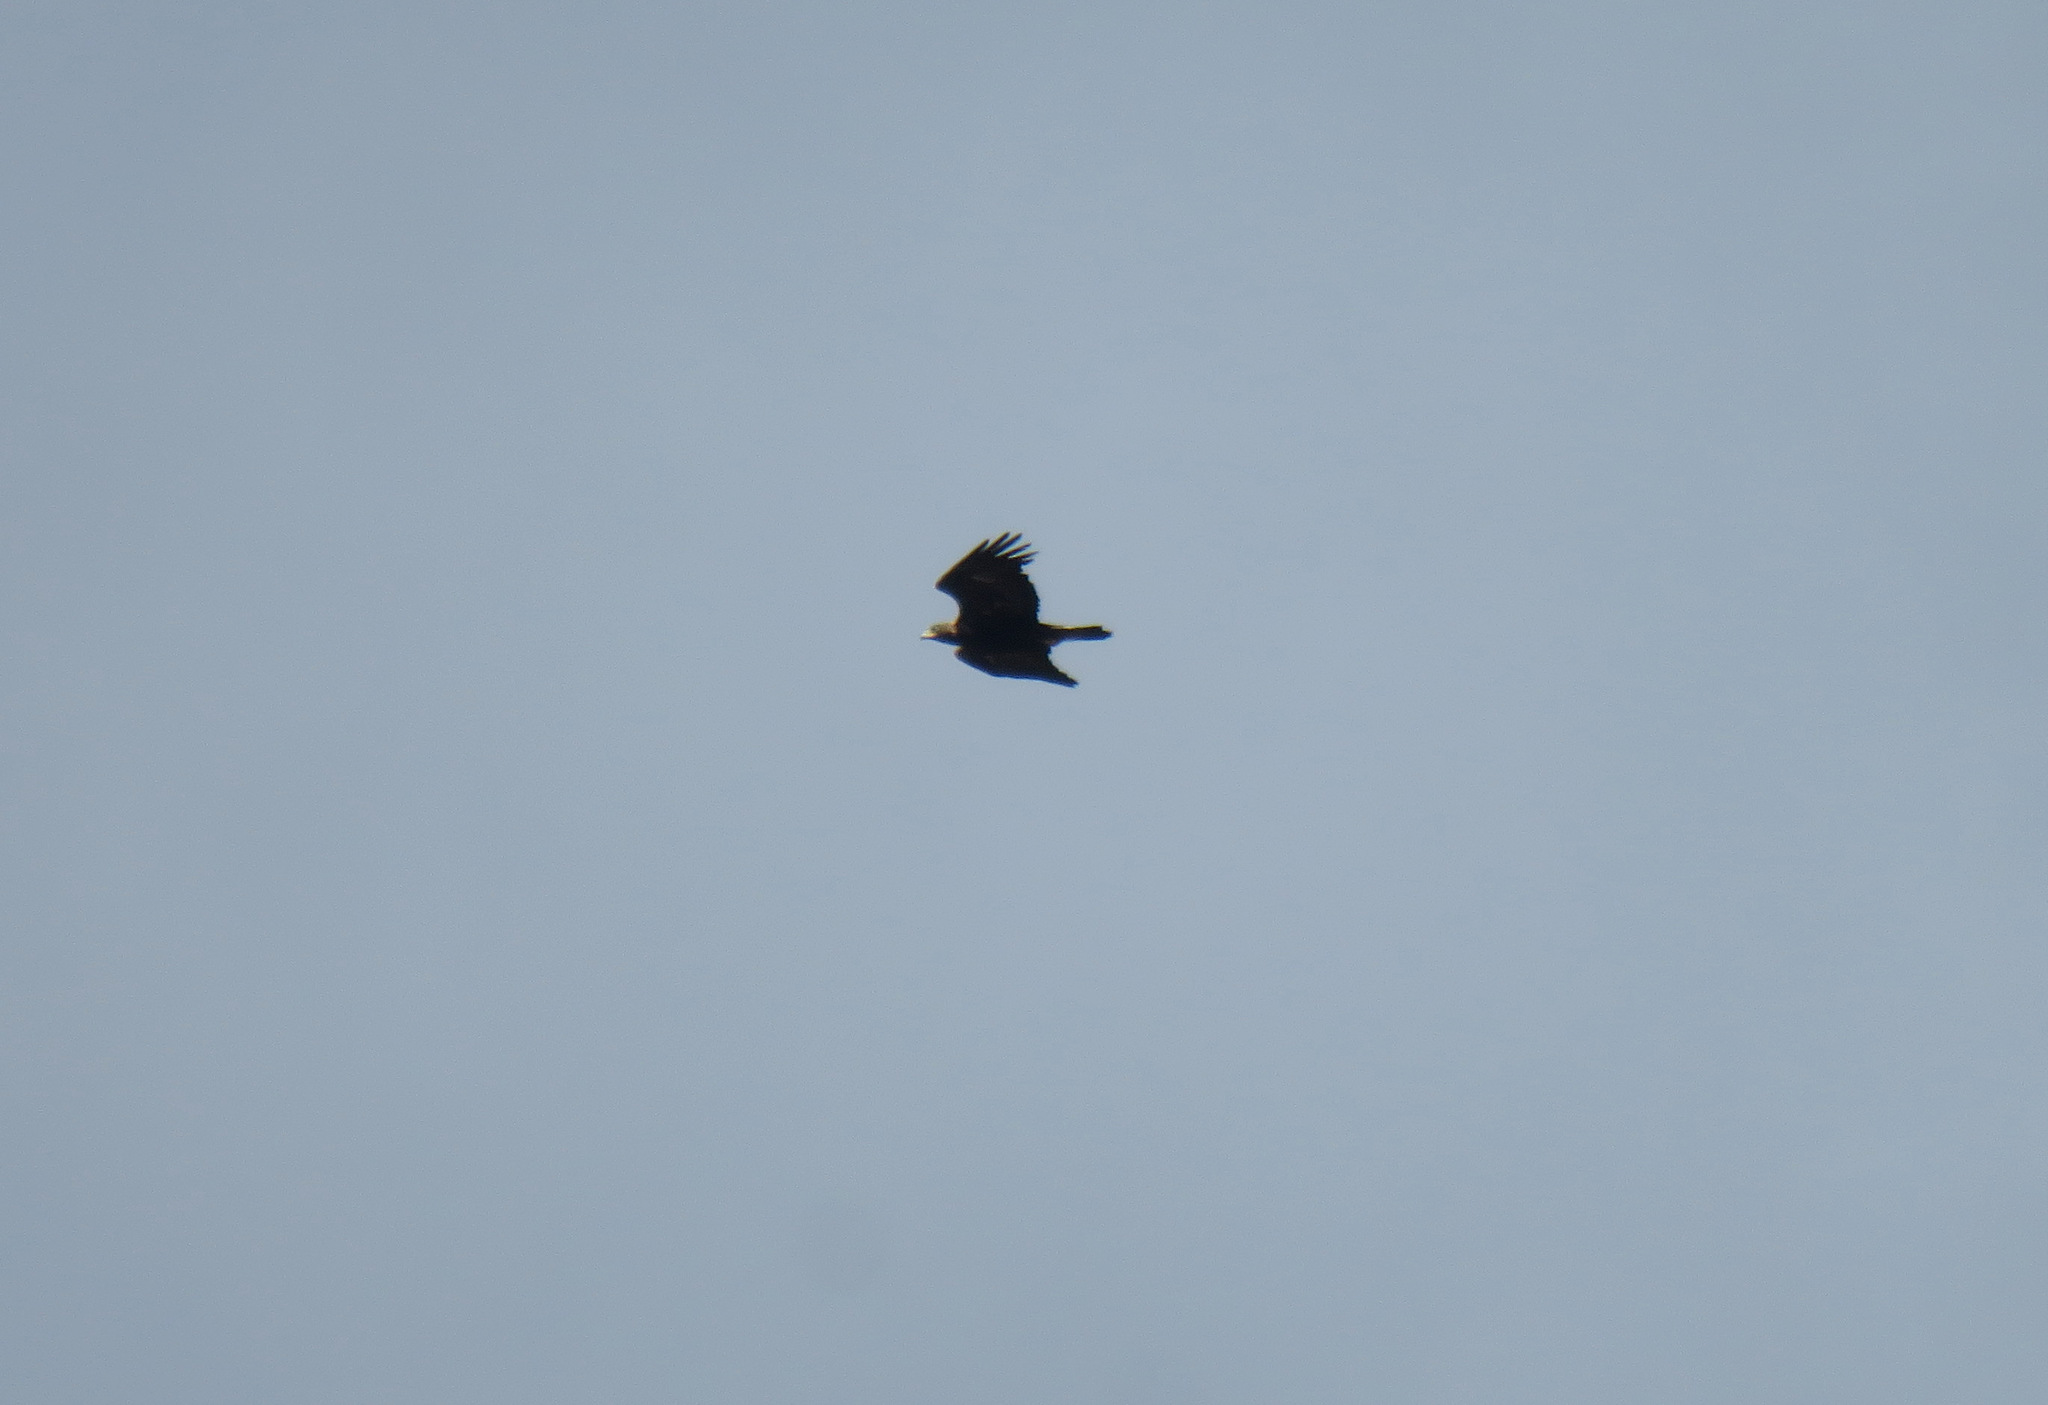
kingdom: Animalia
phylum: Chordata
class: Aves
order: Accipitriformes
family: Accipitridae
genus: Buteo
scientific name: Buteo jamaicensis
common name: Red-tailed hawk
